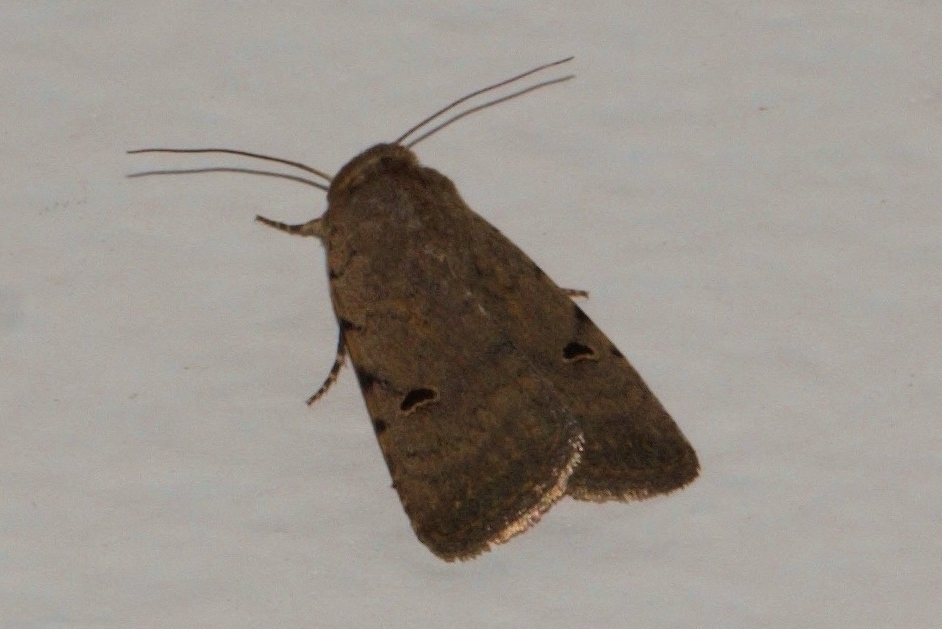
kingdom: Animalia
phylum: Arthropoda
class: Insecta
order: Lepidoptera
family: Noctuidae
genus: Caradrina
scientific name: Caradrina atriluna
